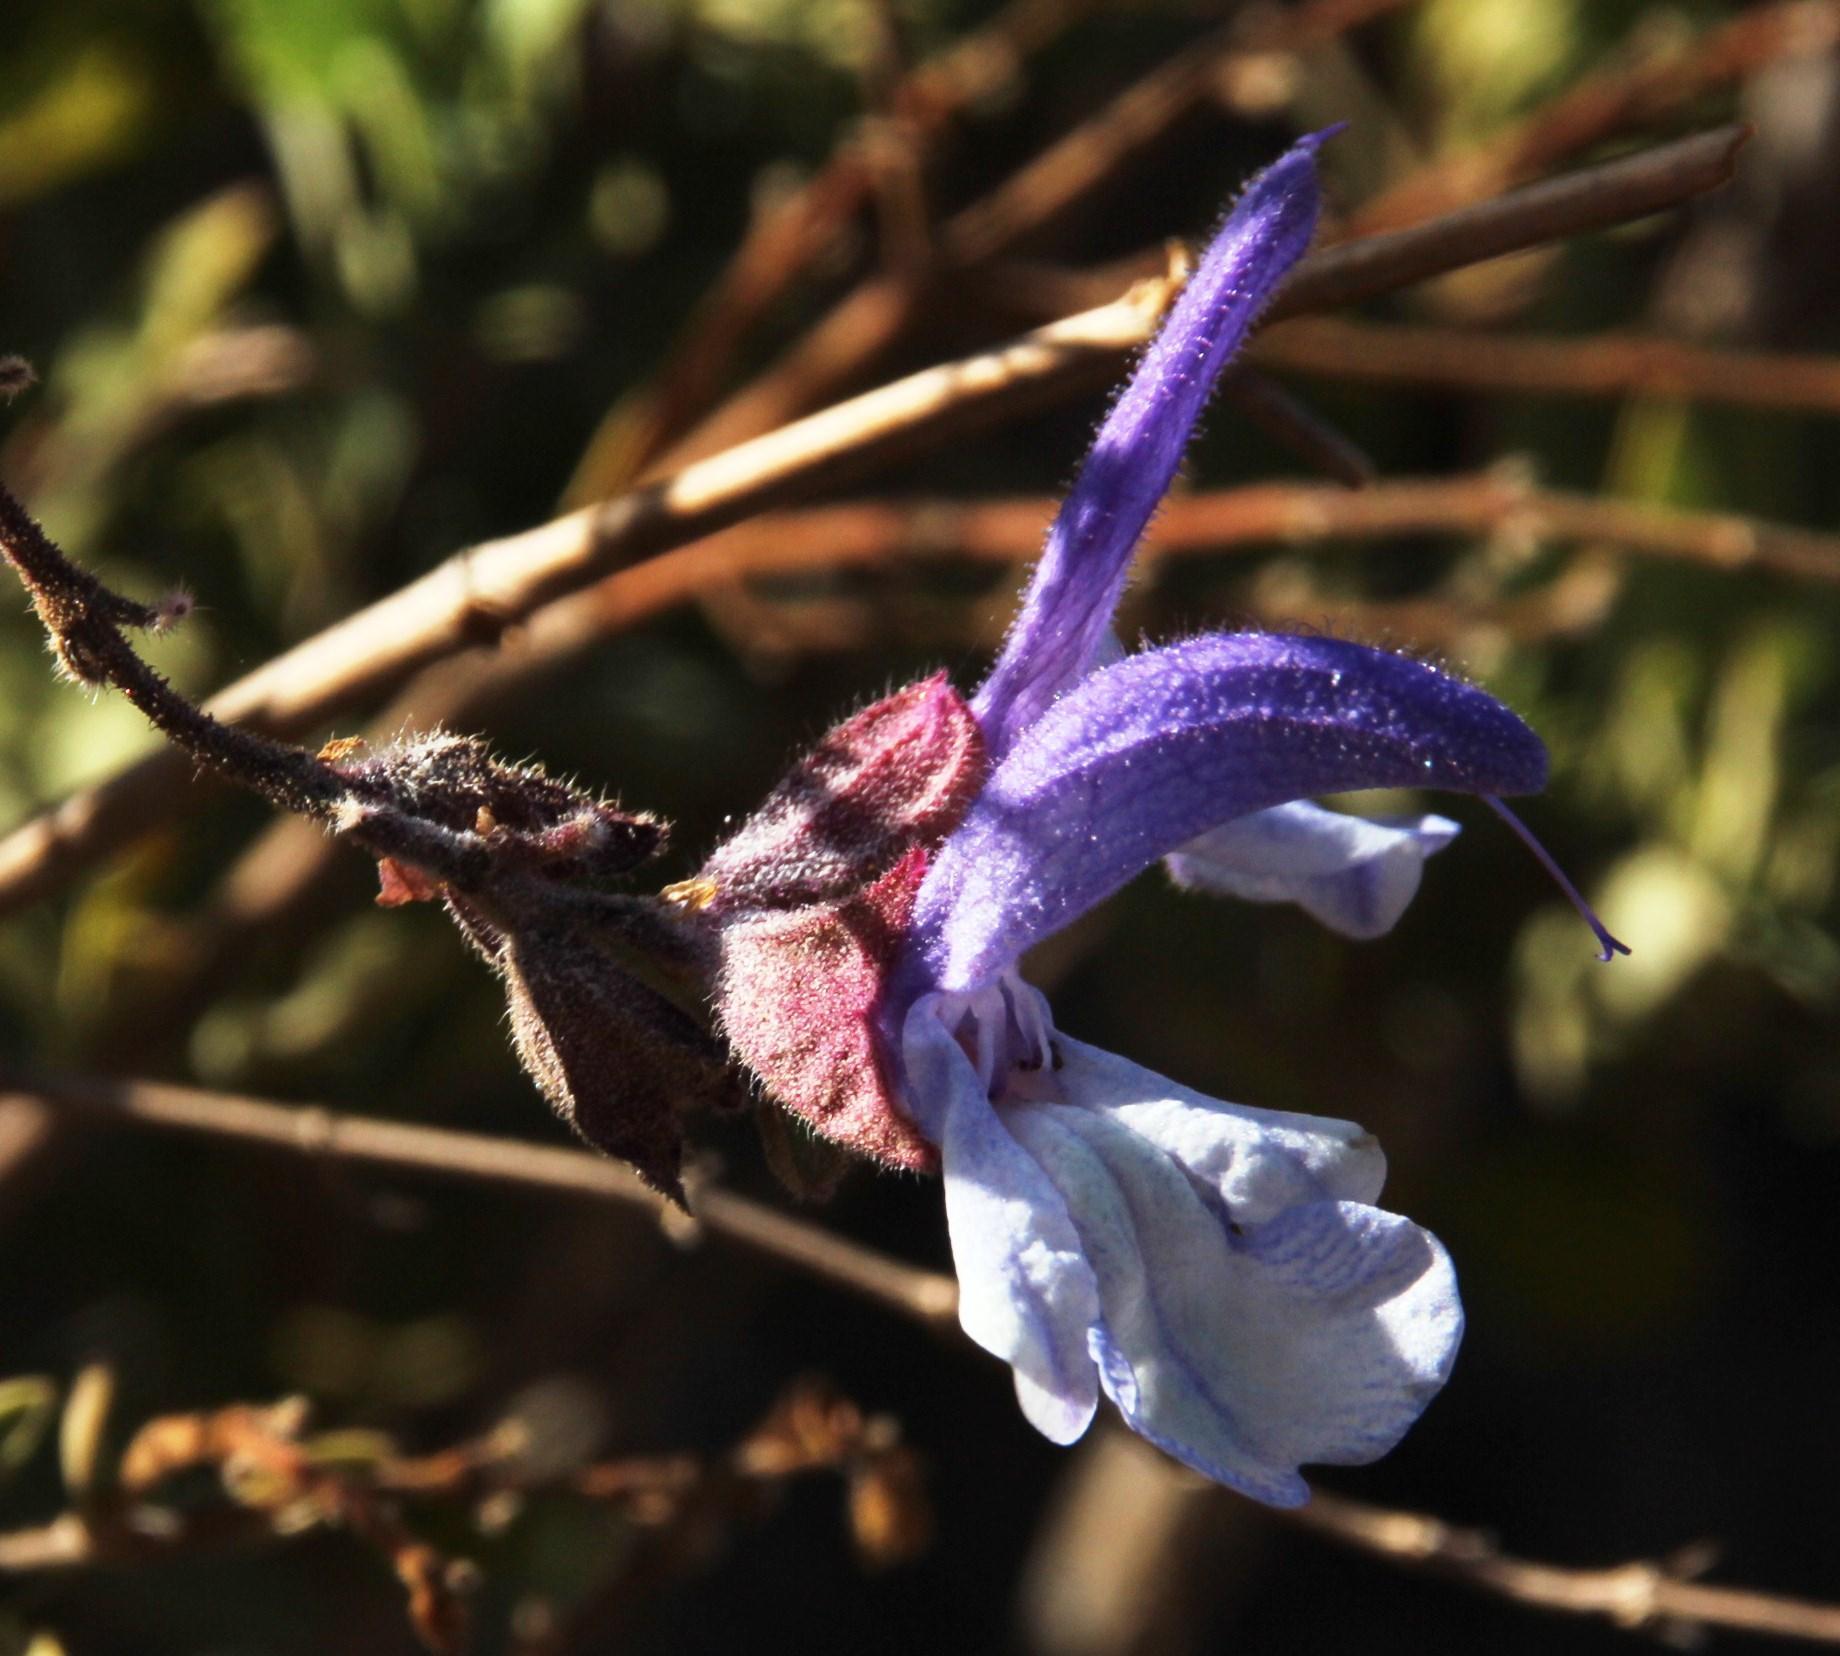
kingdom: Plantae
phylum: Tracheophyta
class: Magnoliopsida
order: Lamiales
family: Lamiaceae
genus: Salvia
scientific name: Salvia chamelaeagnea
